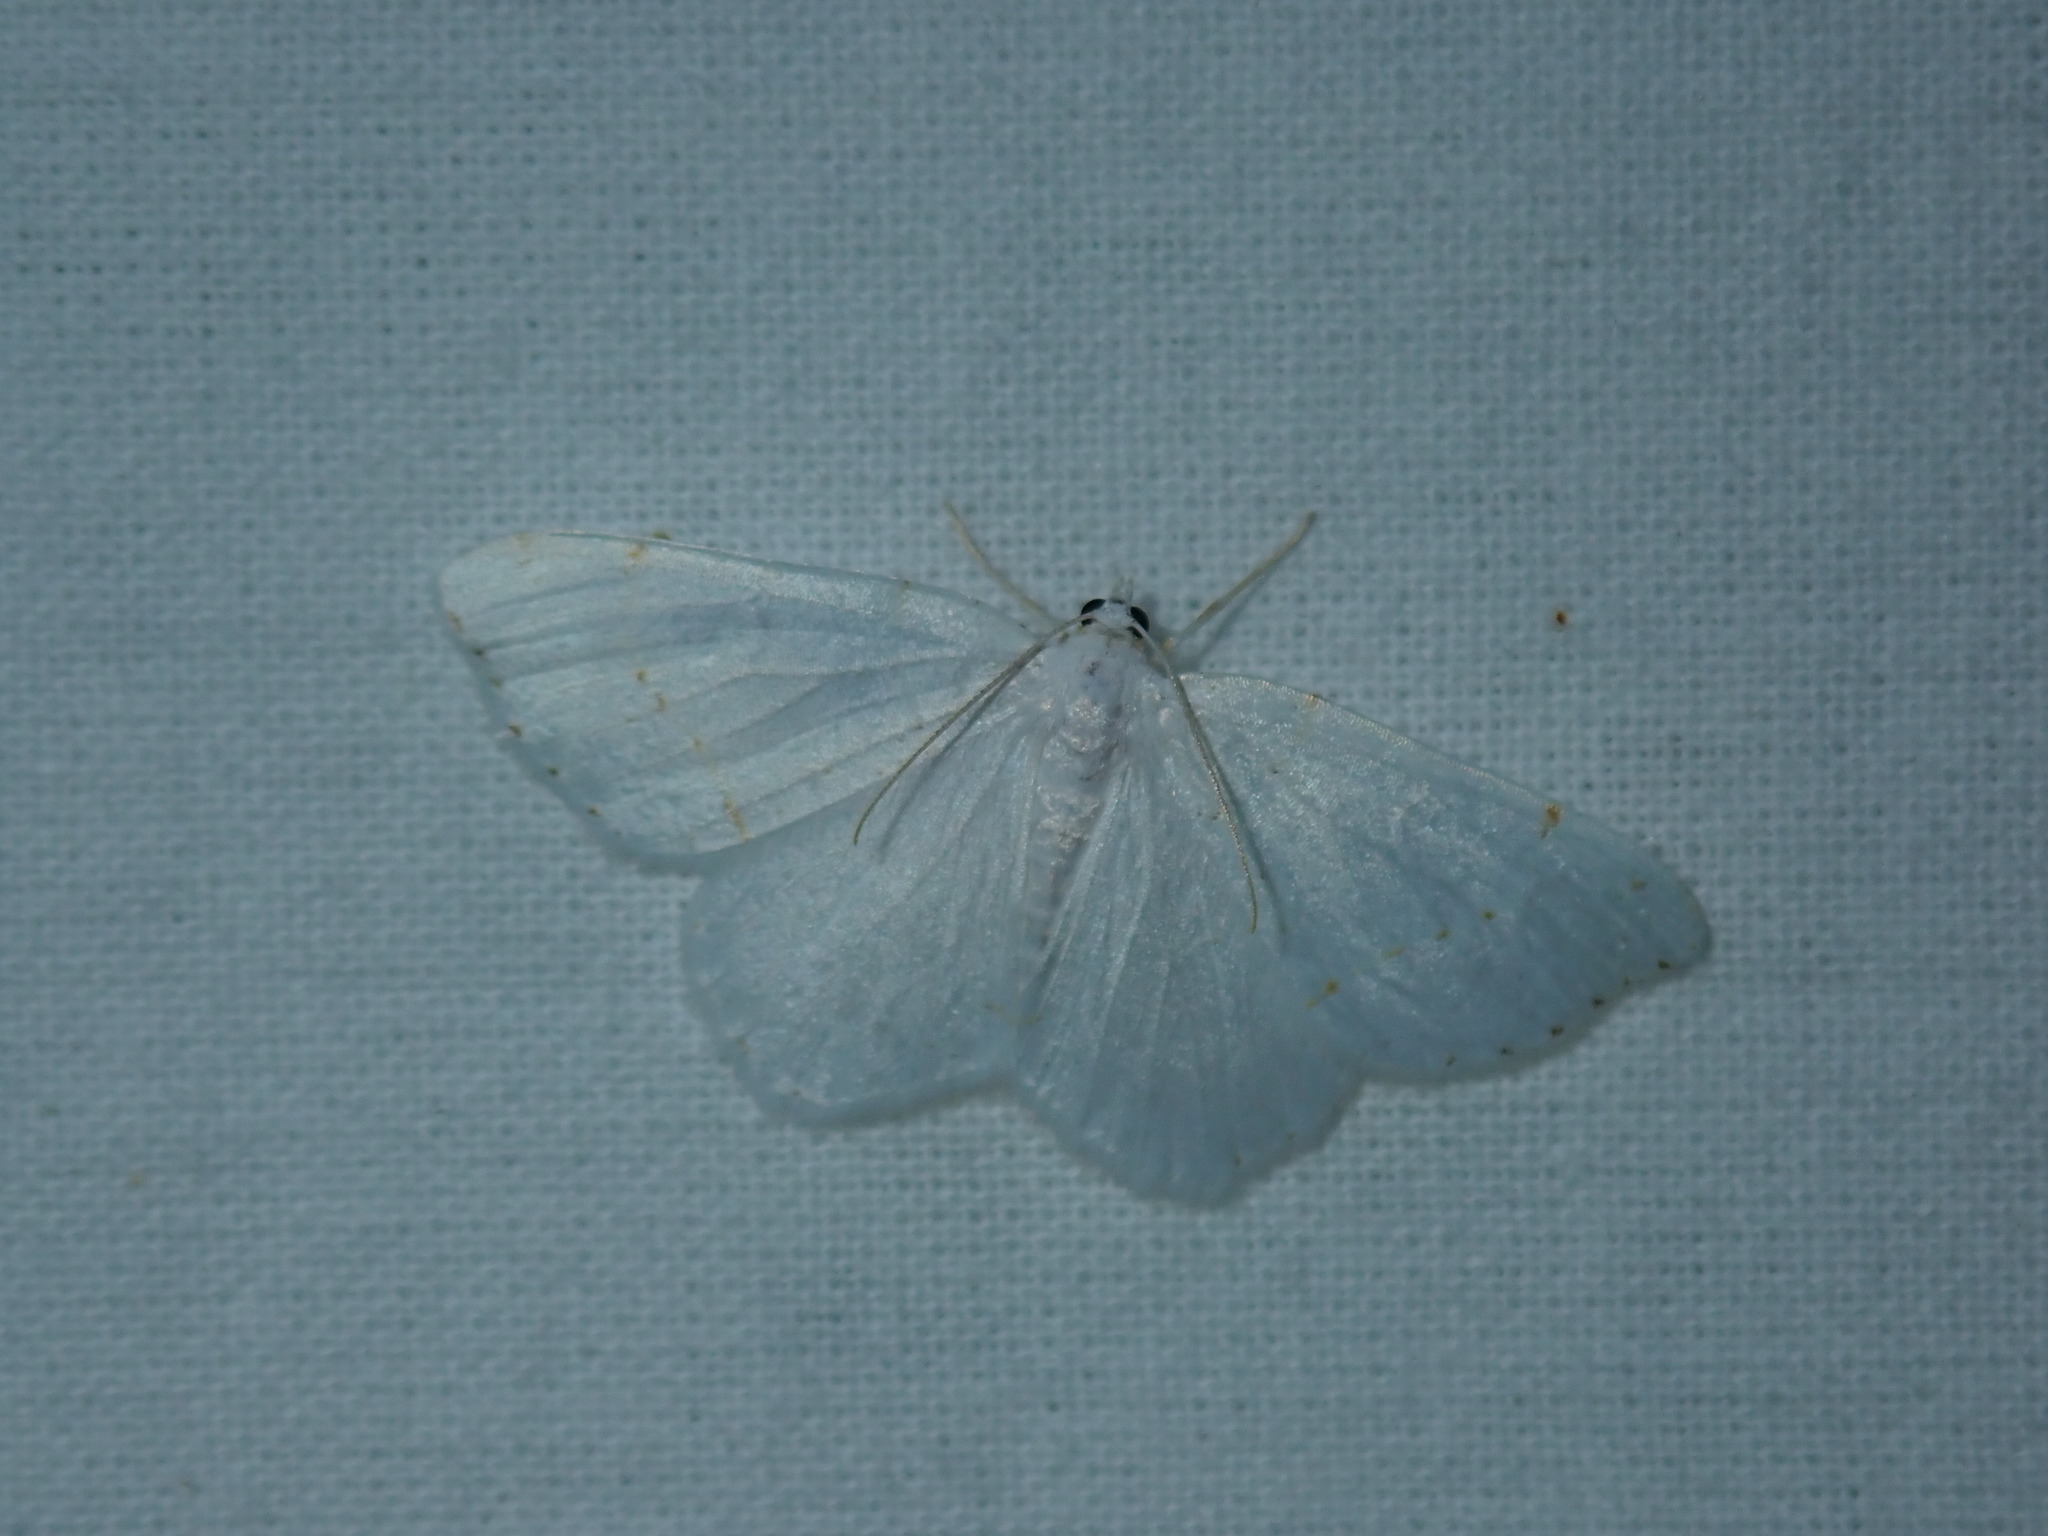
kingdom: Animalia
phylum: Arthropoda
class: Insecta
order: Lepidoptera
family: Geometridae
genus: Macaria
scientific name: Macaria pustularia
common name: Lesser maple spanworm moth
